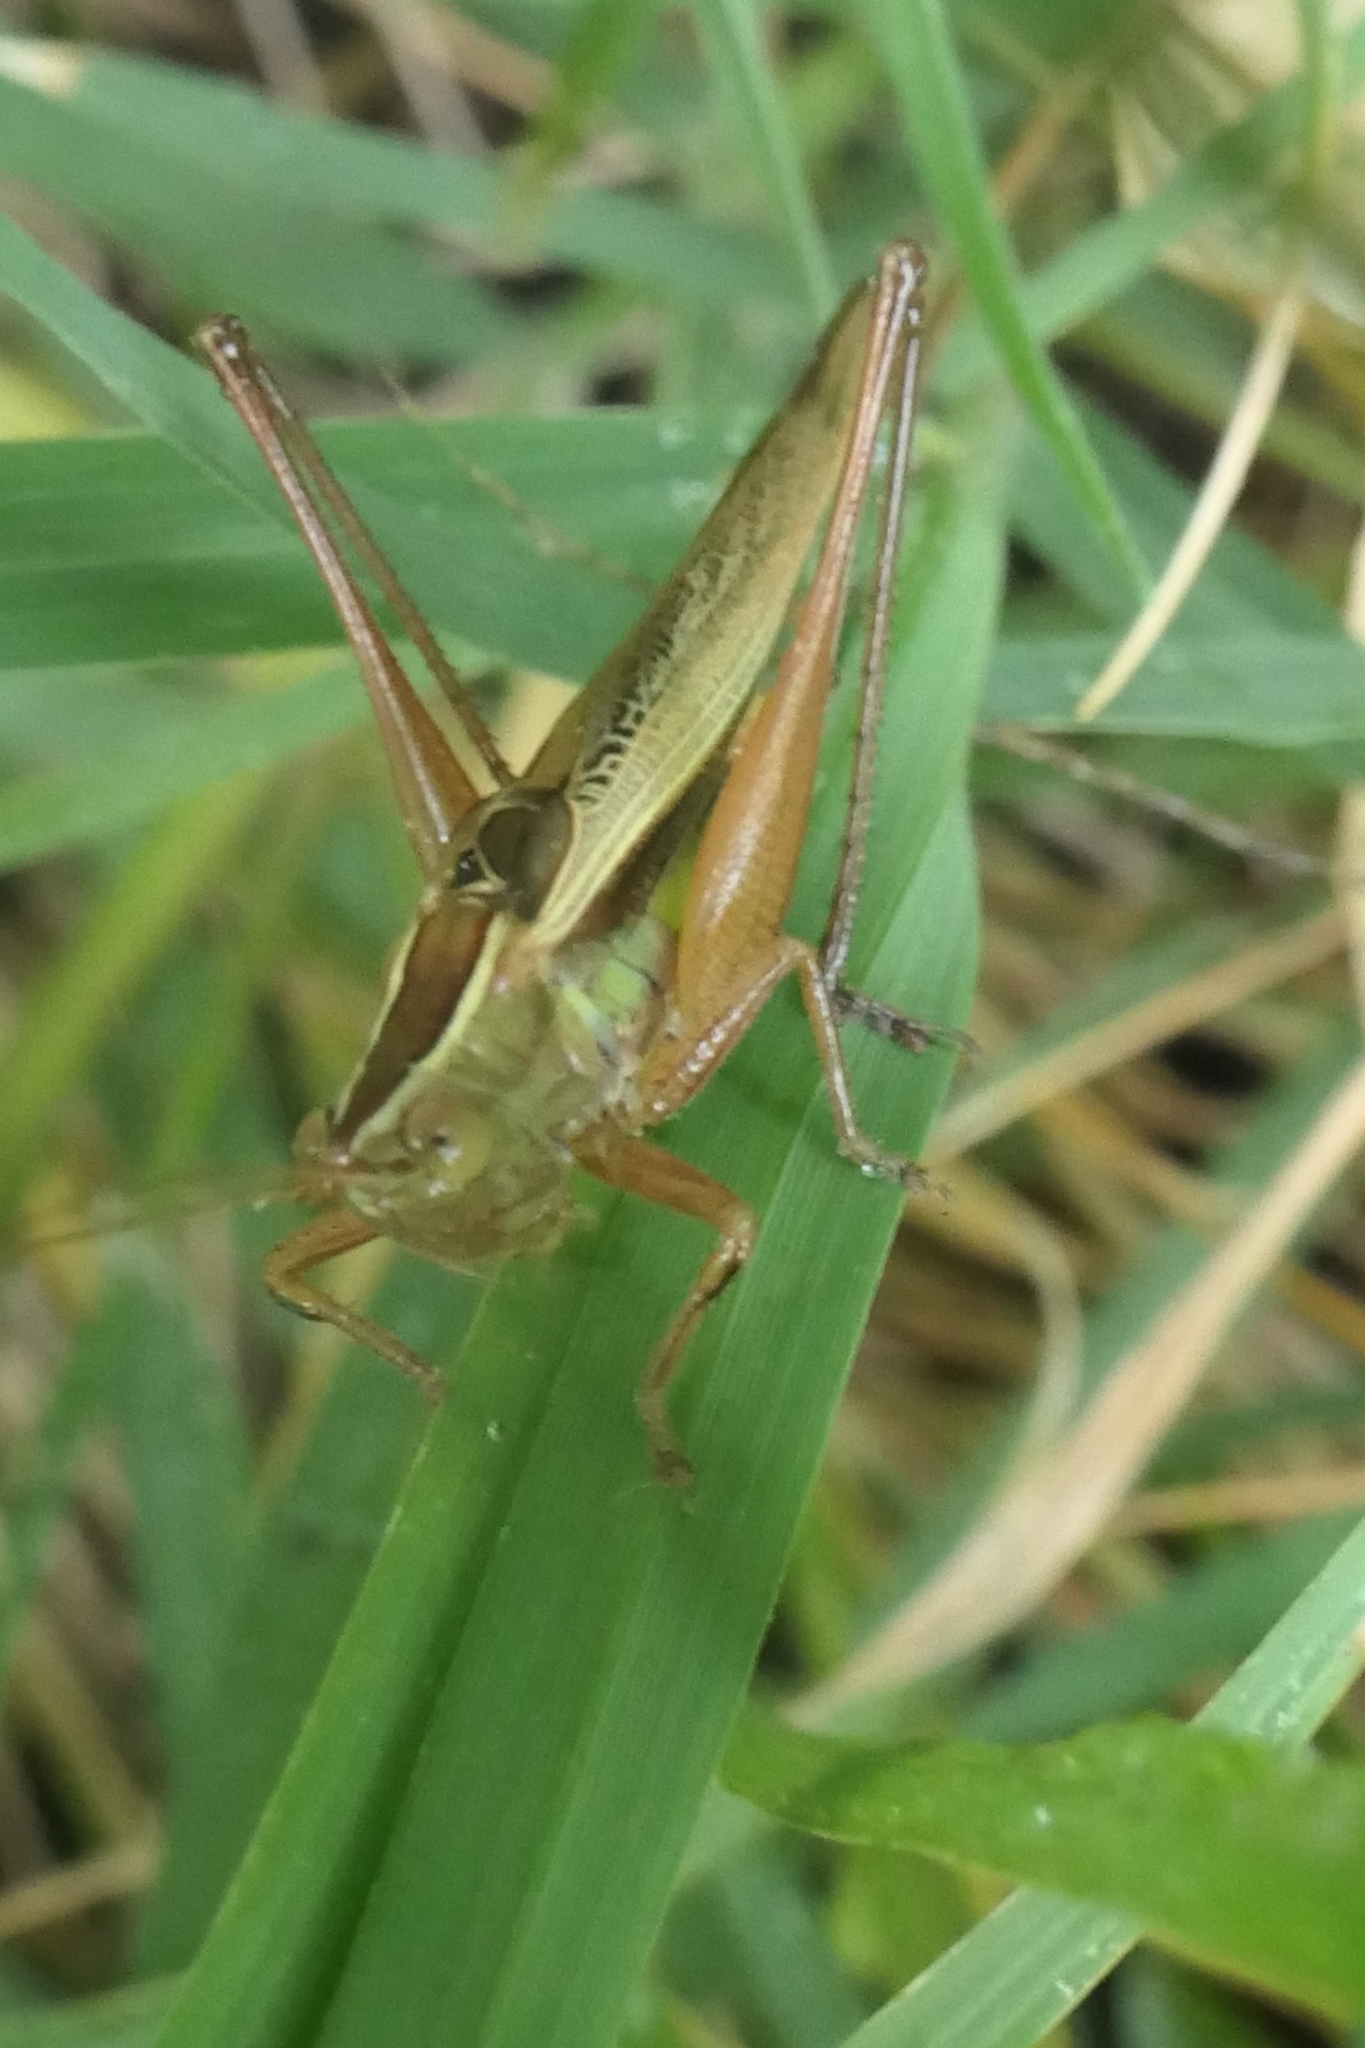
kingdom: Animalia
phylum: Arthropoda
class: Insecta
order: Orthoptera
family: Tettigoniidae
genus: Conocephalus
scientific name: Conocephalus albescens
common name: Whitish meadow katydid
